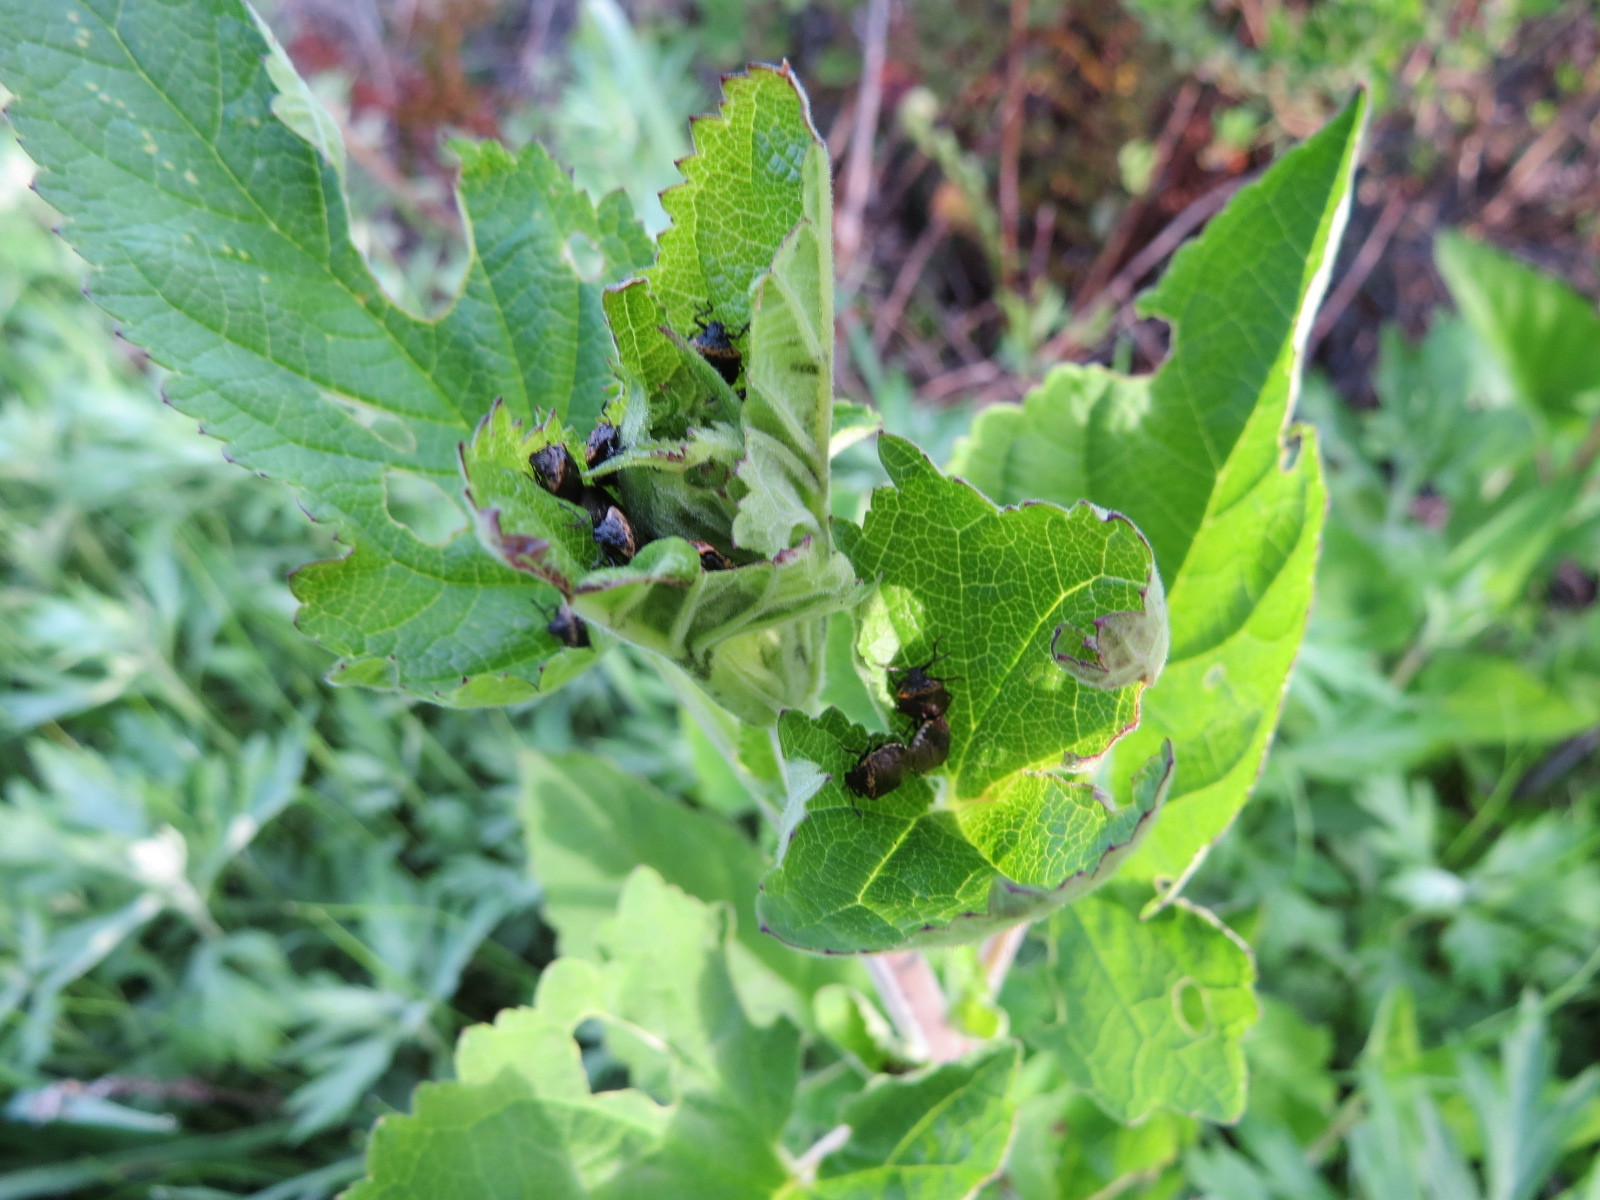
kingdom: Animalia
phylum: Arthropoda
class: Insecta
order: Hemiptera
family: Pentatomidae
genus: Cosmopepla
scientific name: Cosmopepla uhleri
